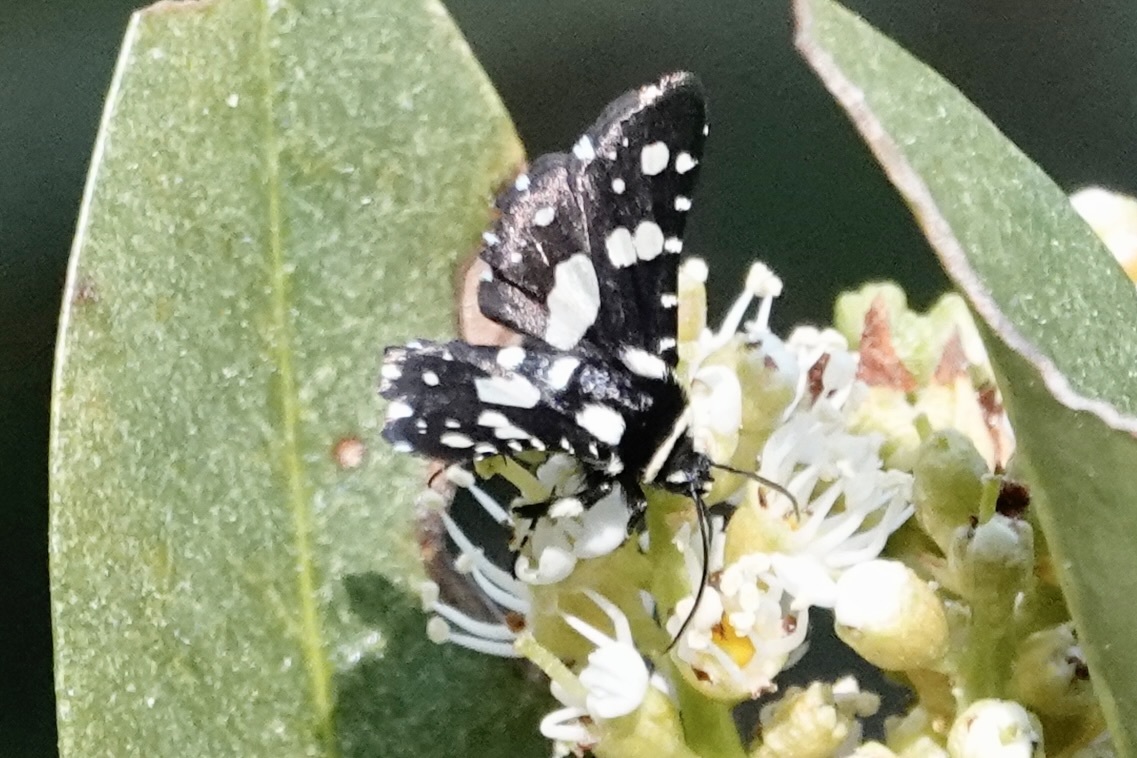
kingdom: Animalia
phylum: Arthropoda
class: Insecta
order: Lepidoptera
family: Thyrididae
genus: Pseudothyris
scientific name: Pseudothyris sepulchralis
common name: Mournful thyris moth
